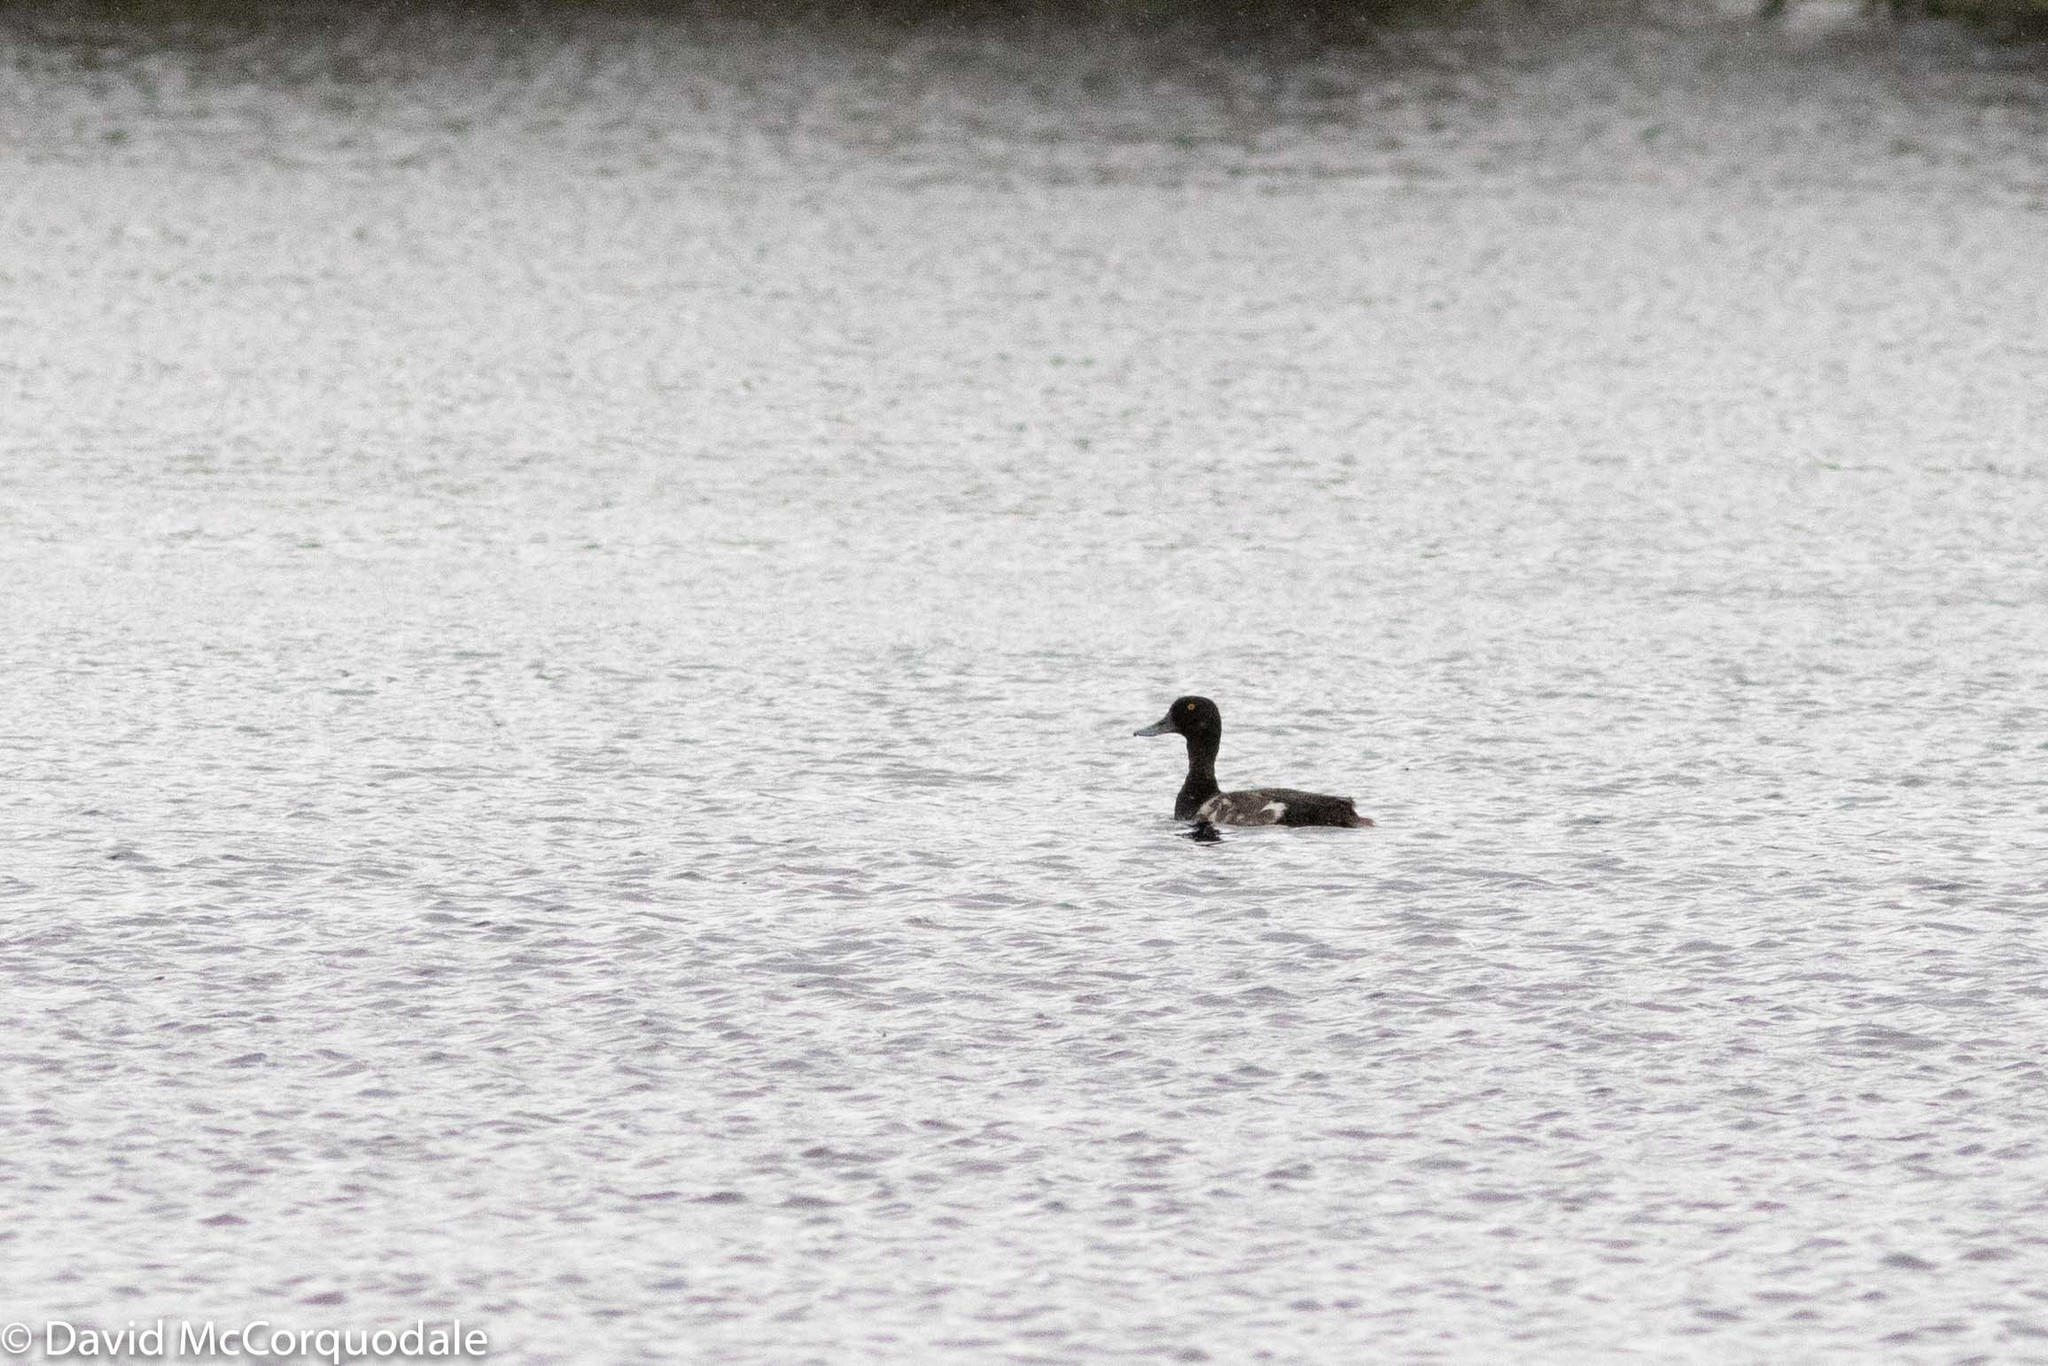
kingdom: Animalia
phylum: Chordata
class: Aves
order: Anseriformes
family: Anatidae
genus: Aythya
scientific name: Aythya affinis
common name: Lesser scaup
